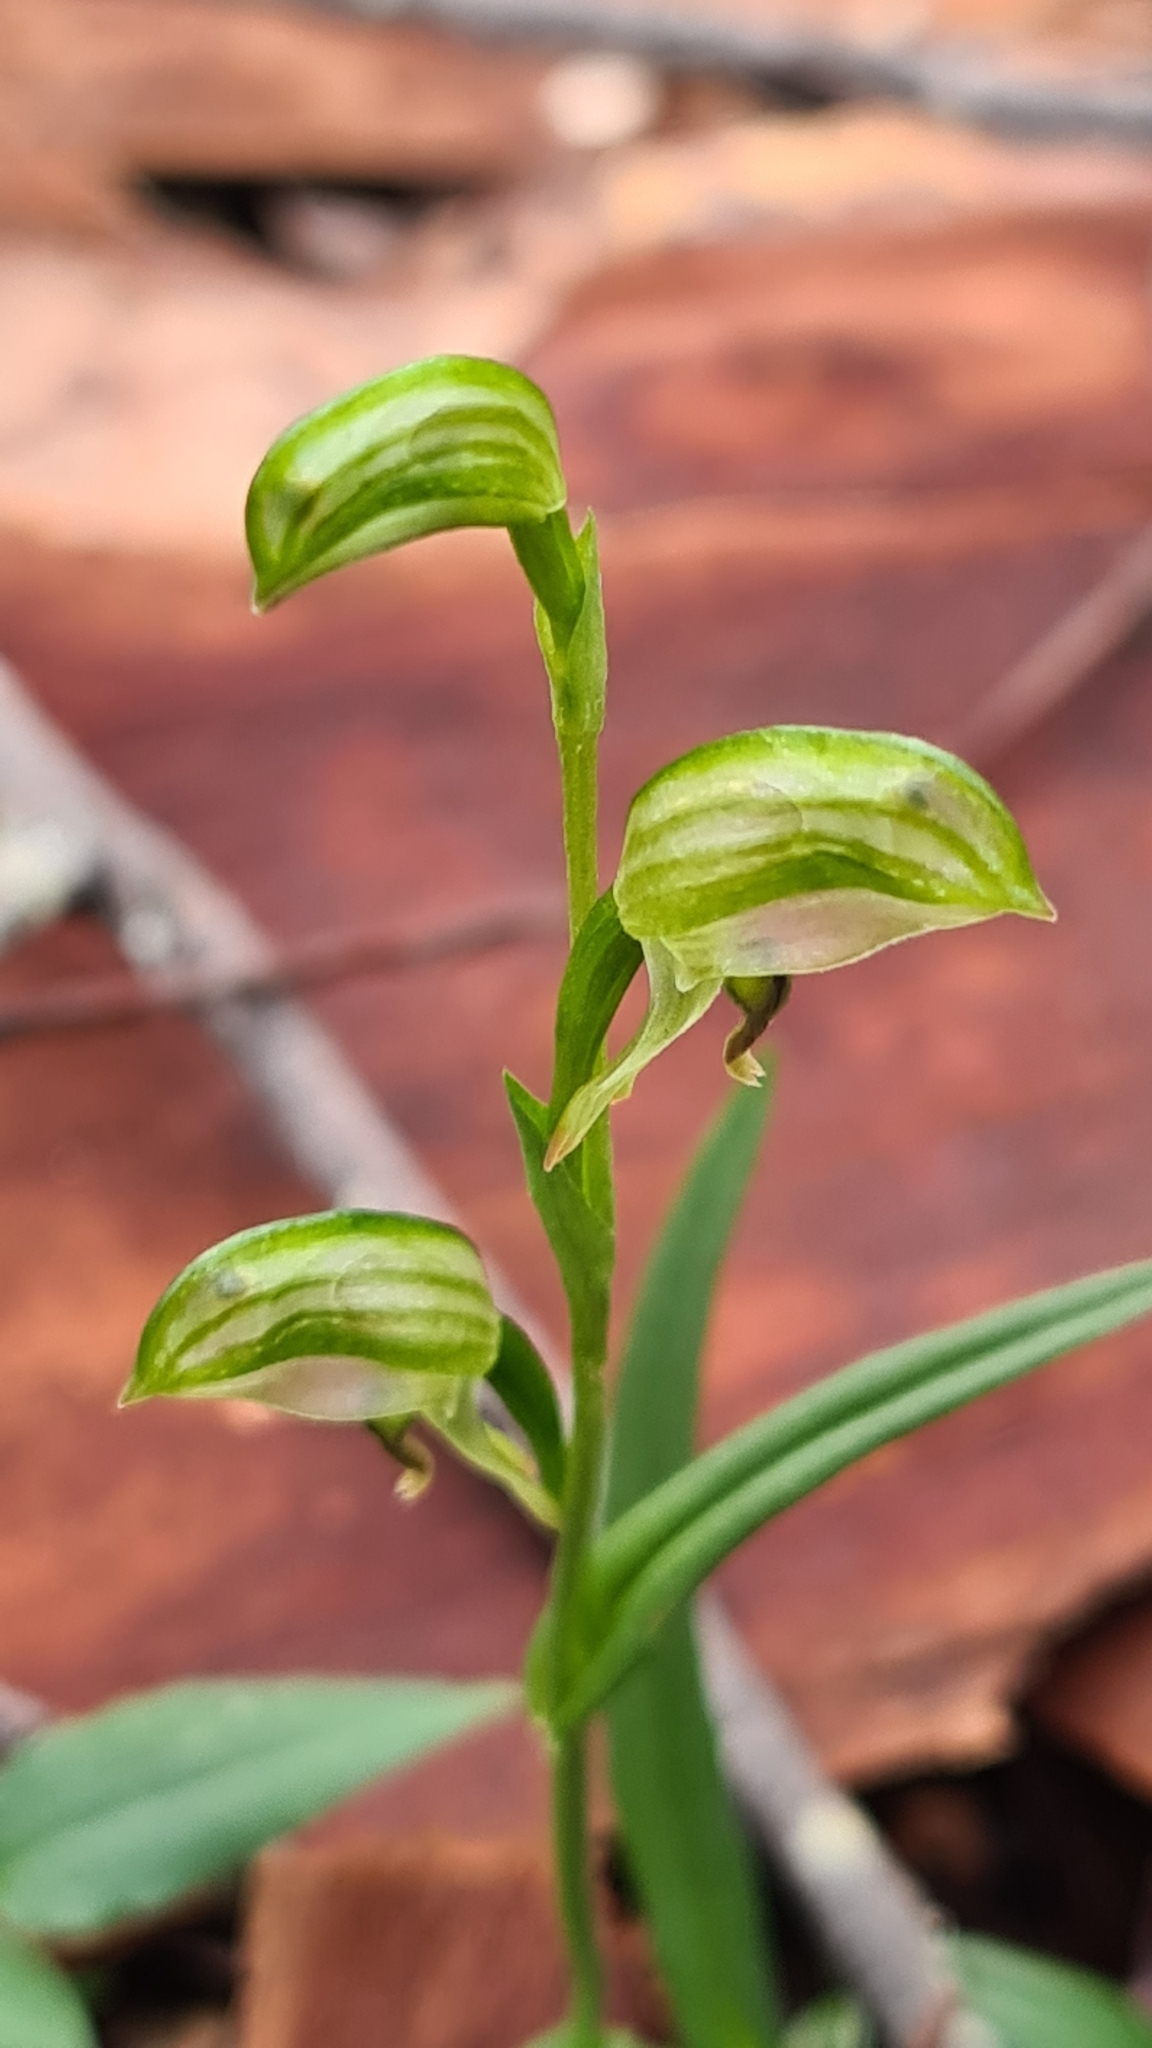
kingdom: Plantae
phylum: Tracheophyta
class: Liliopsida
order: Asparagales
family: Orchidaceae
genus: Pterostylis
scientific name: Pterostylis melagramma
